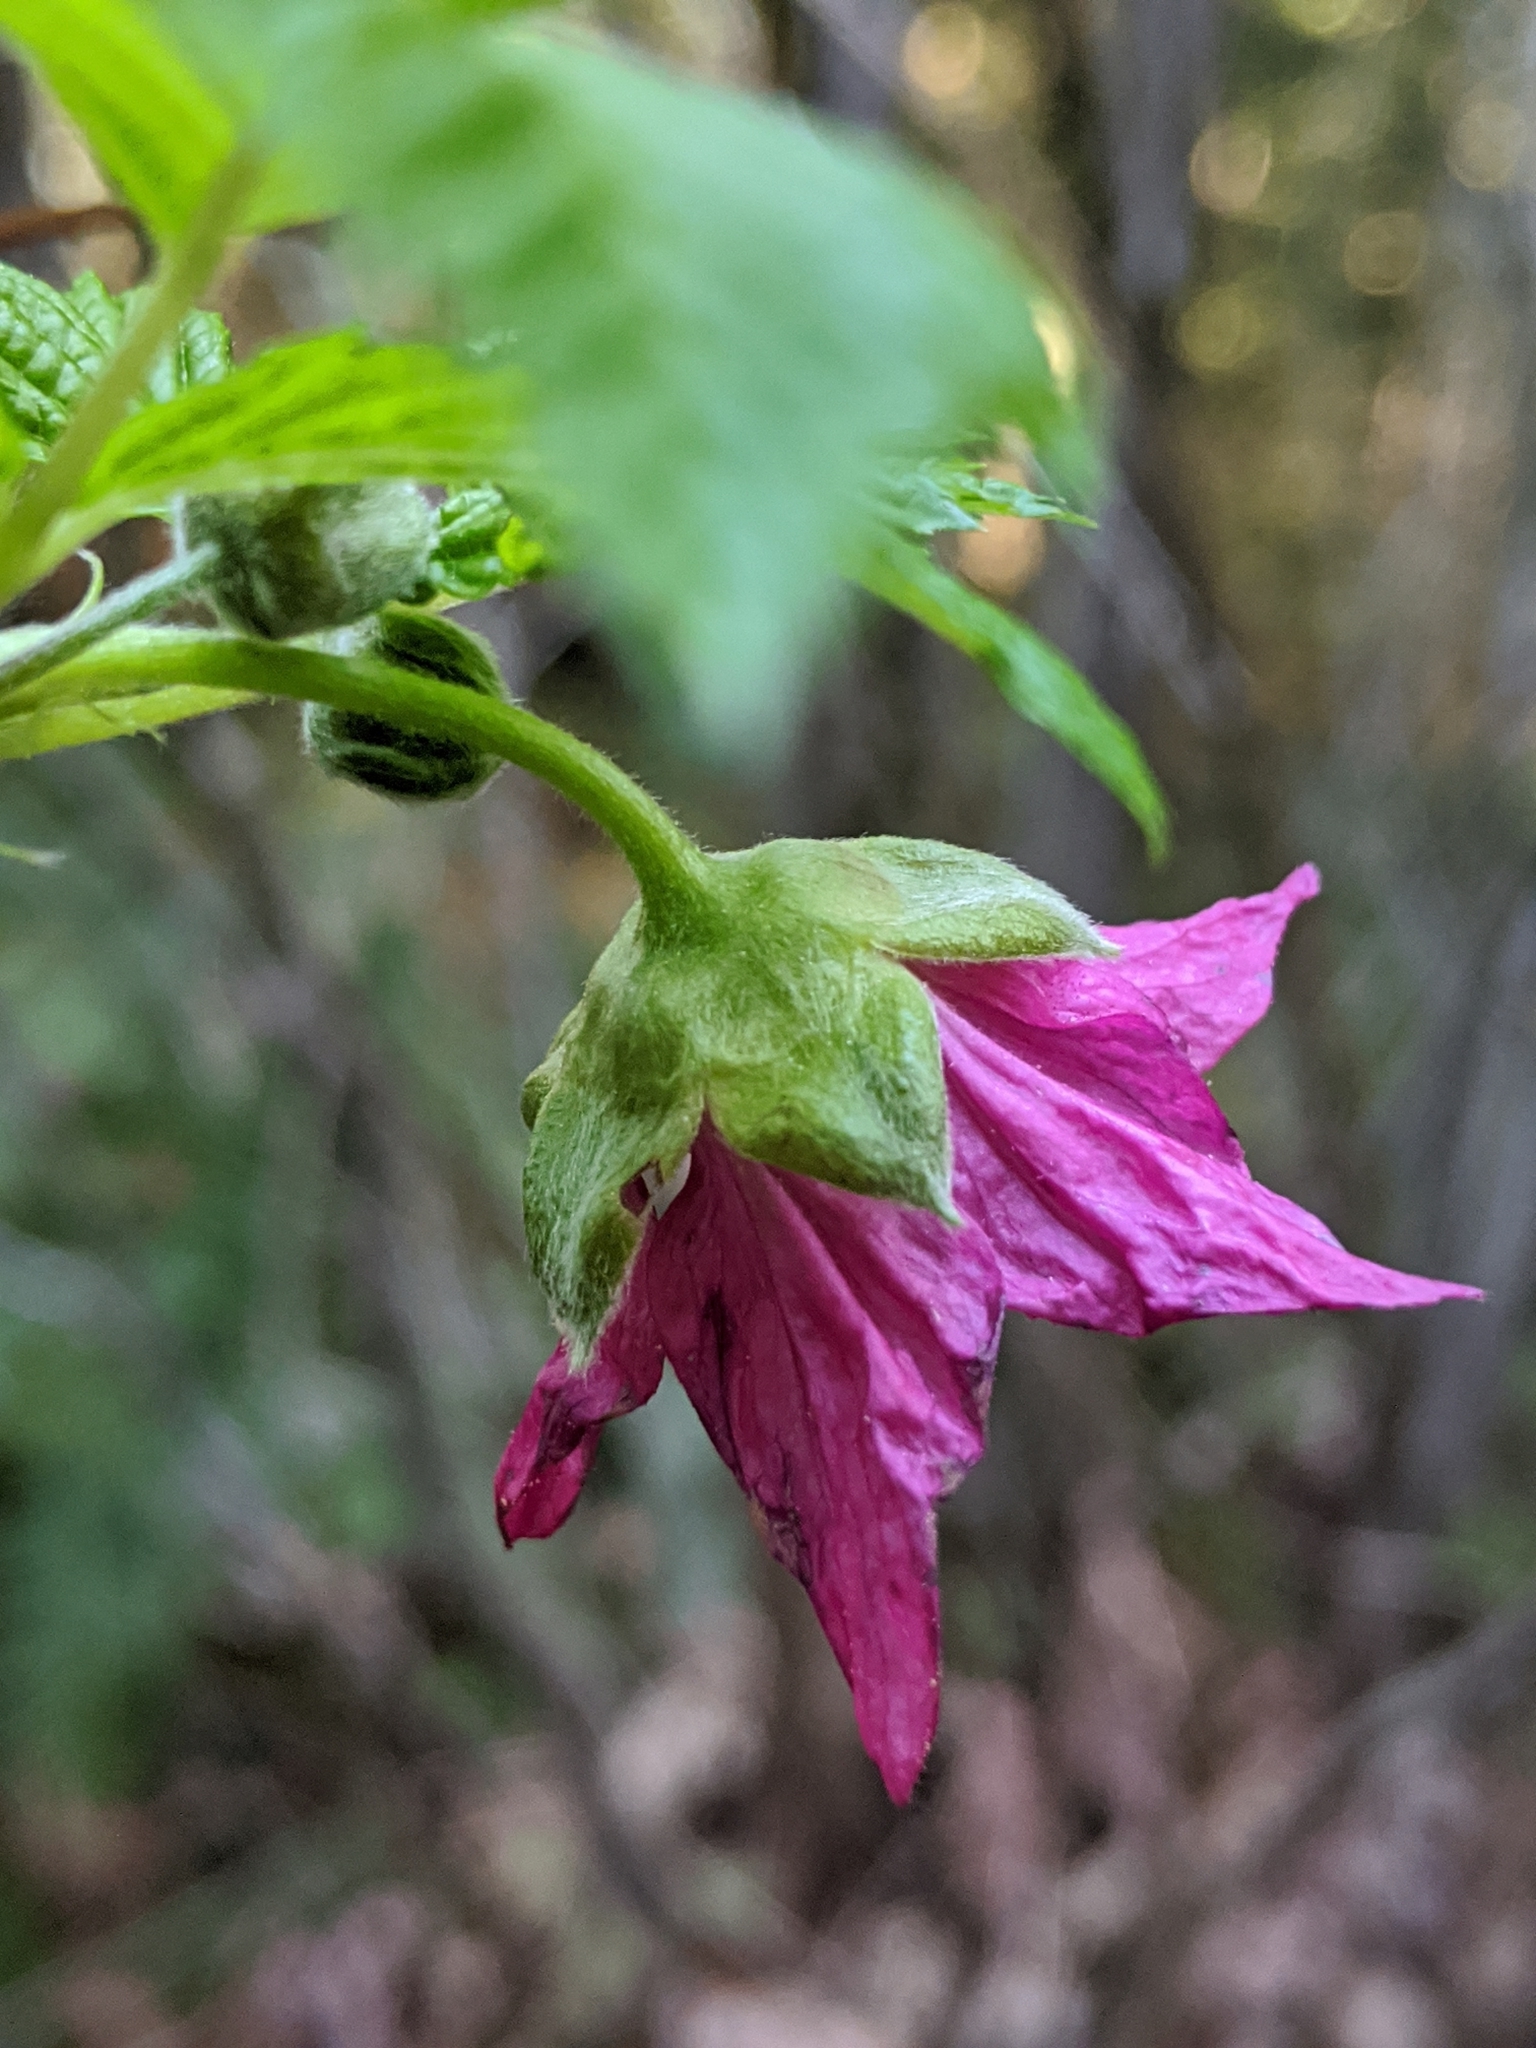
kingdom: Plantae
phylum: Tracheophyta
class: Magnoliopsida
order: Rosales
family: Rosaceae
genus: Rubus
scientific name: Rubus spectabilis
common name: Salmonberry
